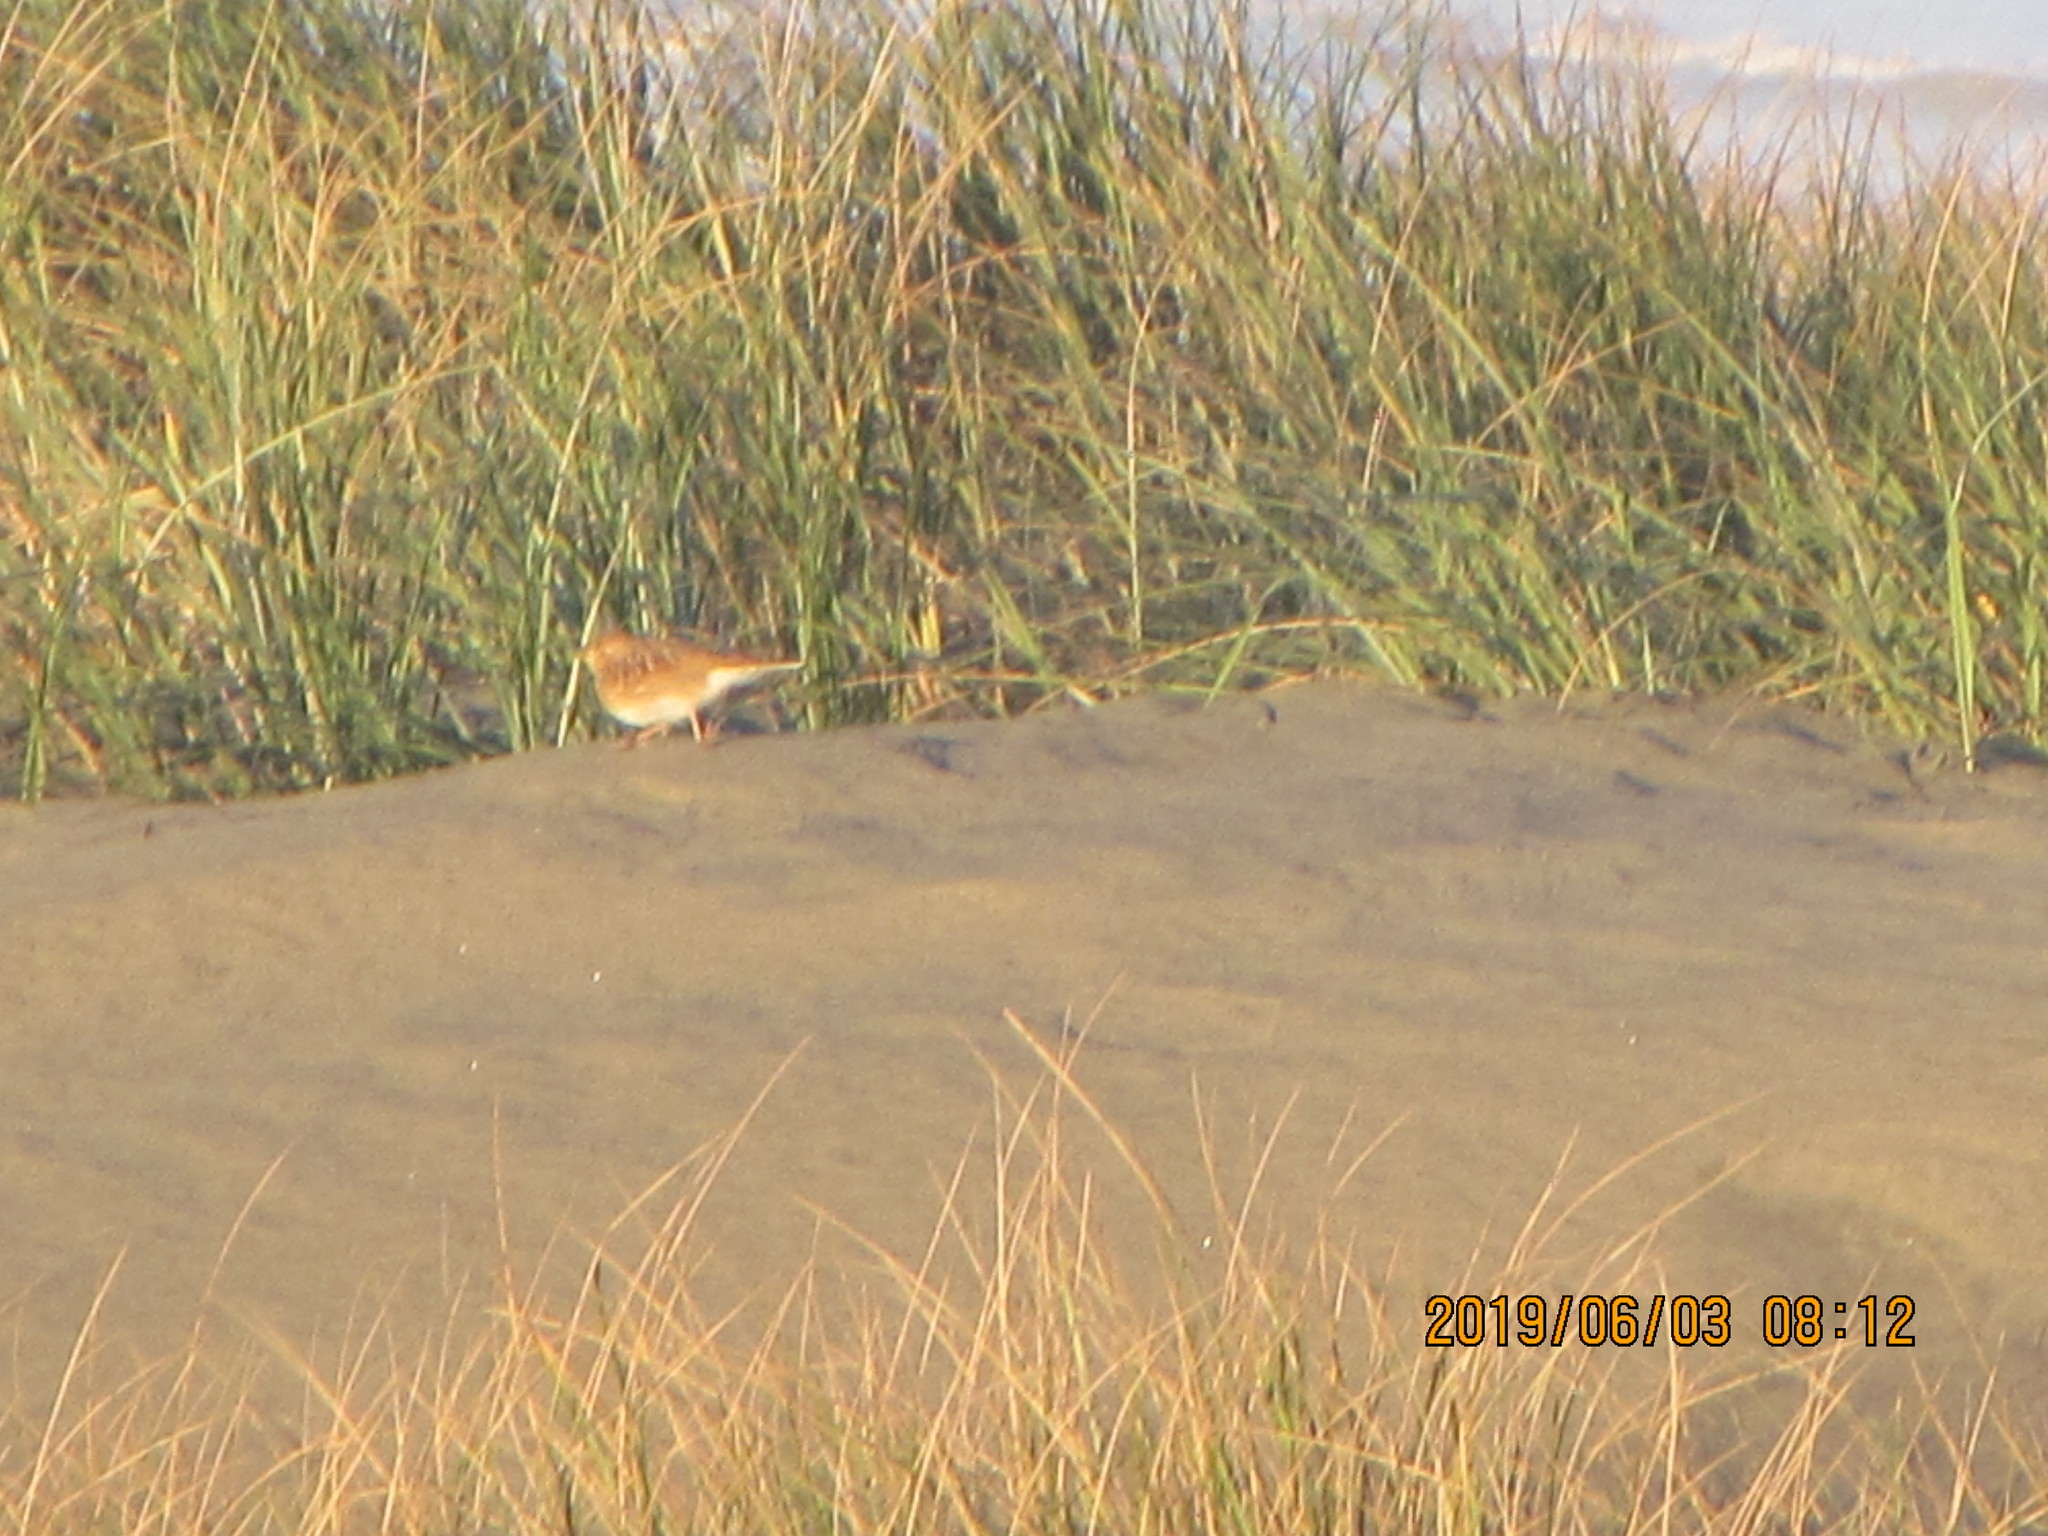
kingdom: Animalia
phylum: Chordata
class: Aves
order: Passeriformes
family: Motacillidae
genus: Anthus
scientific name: Anthus novaeseelandiae
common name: New zealand pipit
